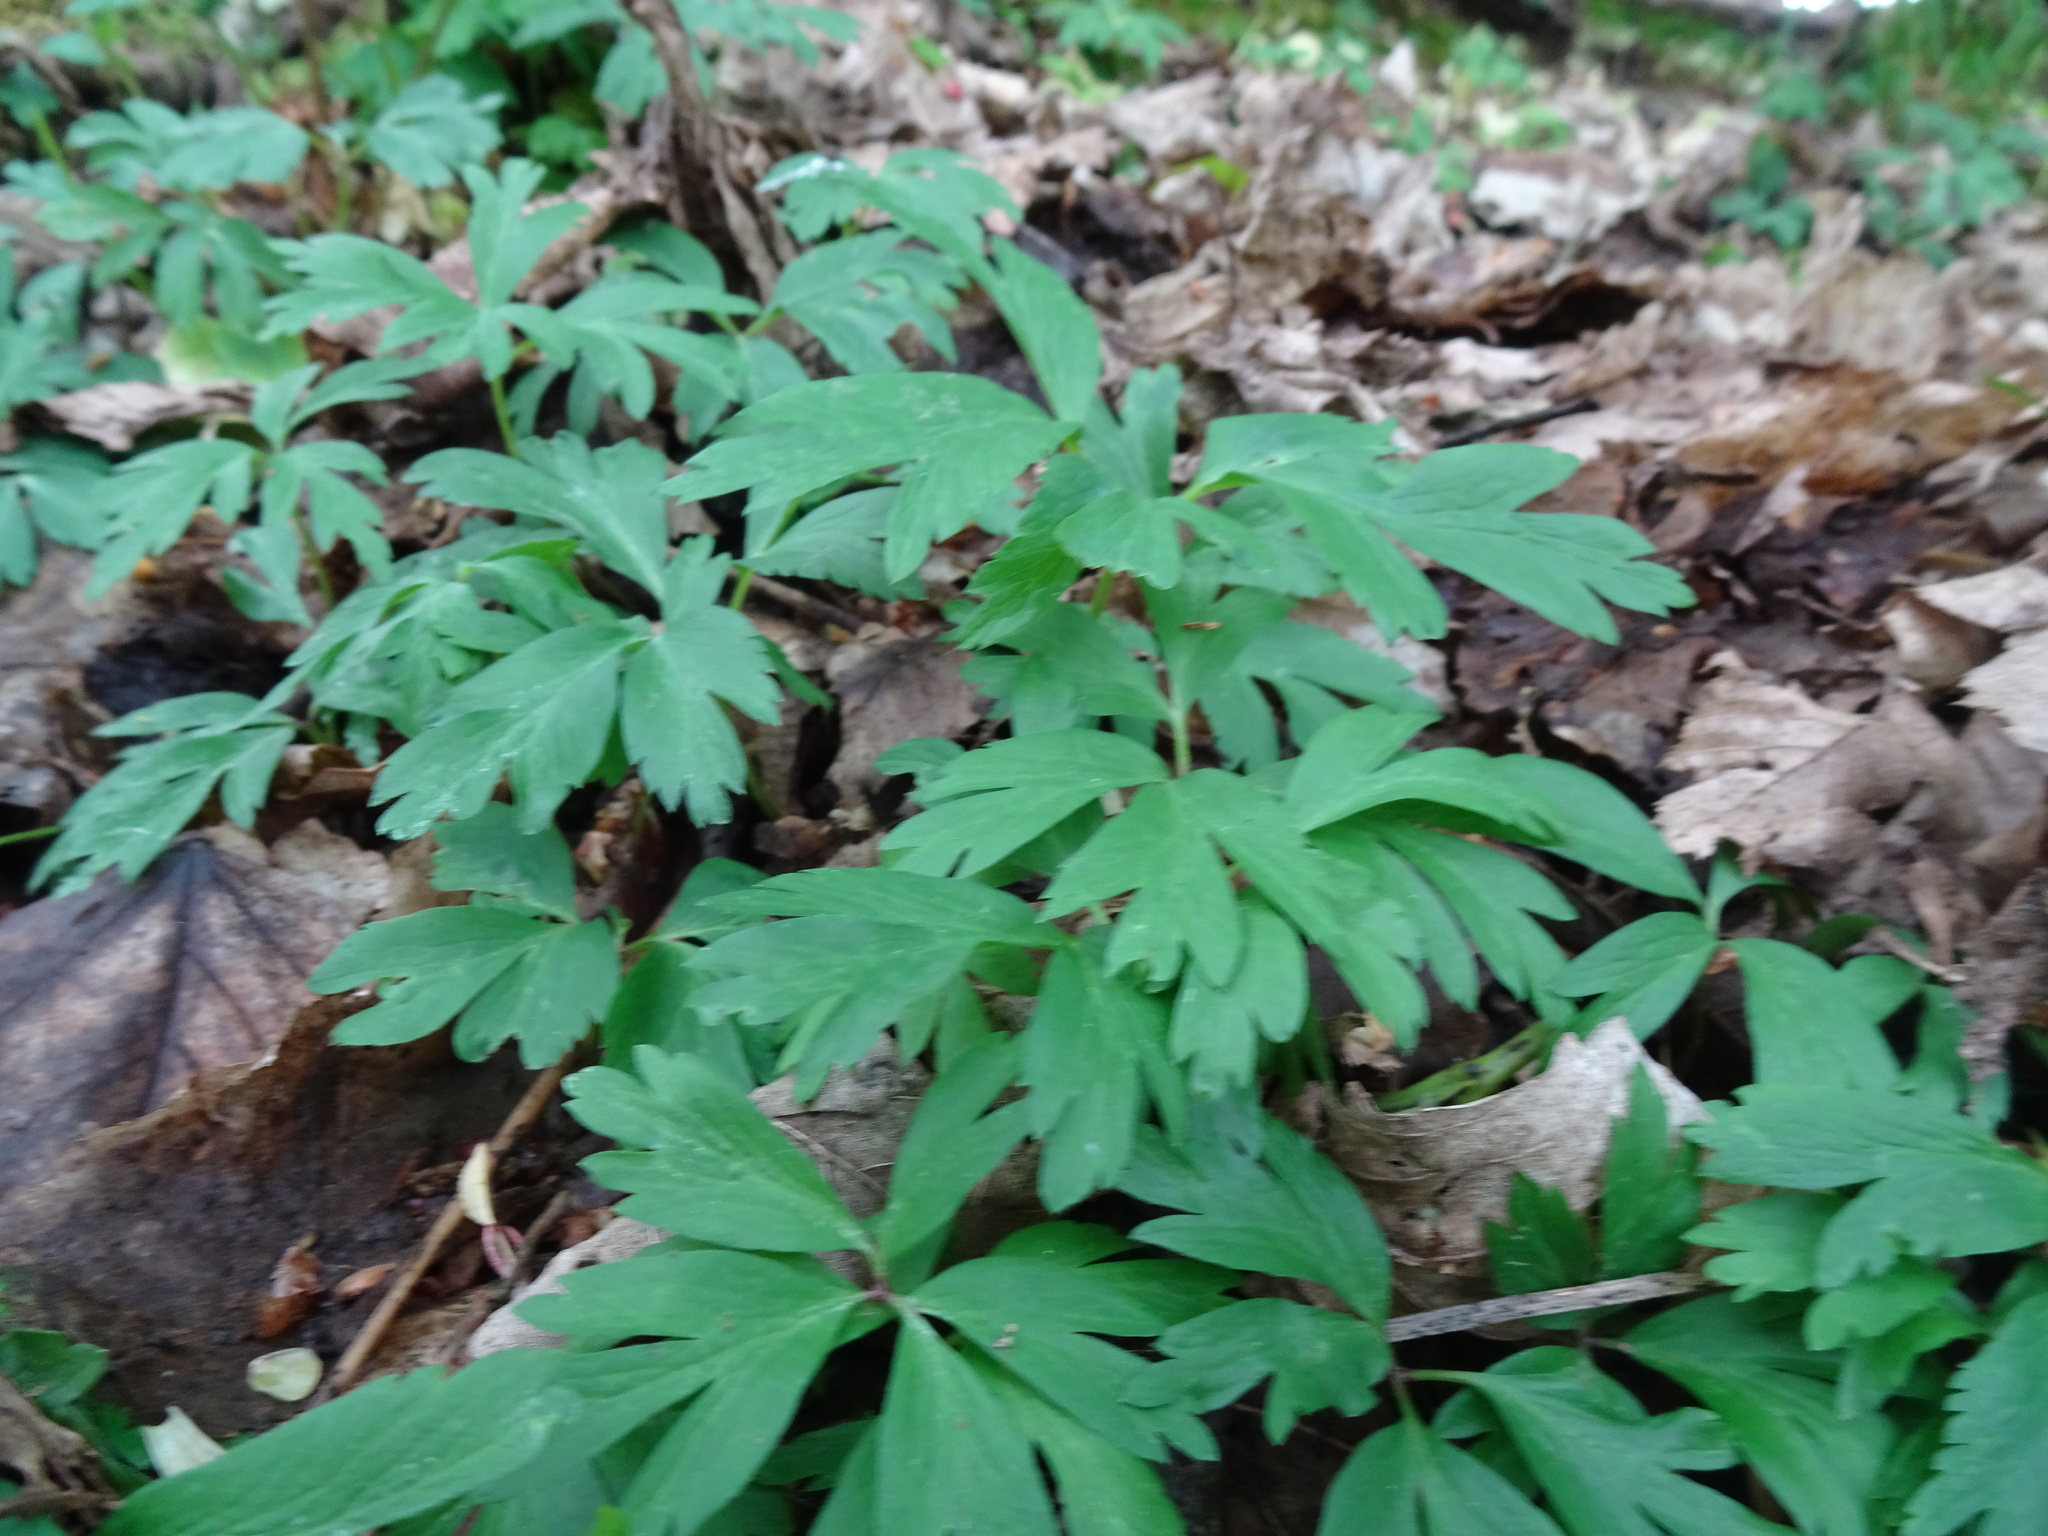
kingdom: Plantae
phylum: Tracheophyta
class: Magnoliopsida
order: Ranunculales
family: Ranunculaceae
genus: Anemone
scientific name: Anemone nemorosa
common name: Wood anemone
